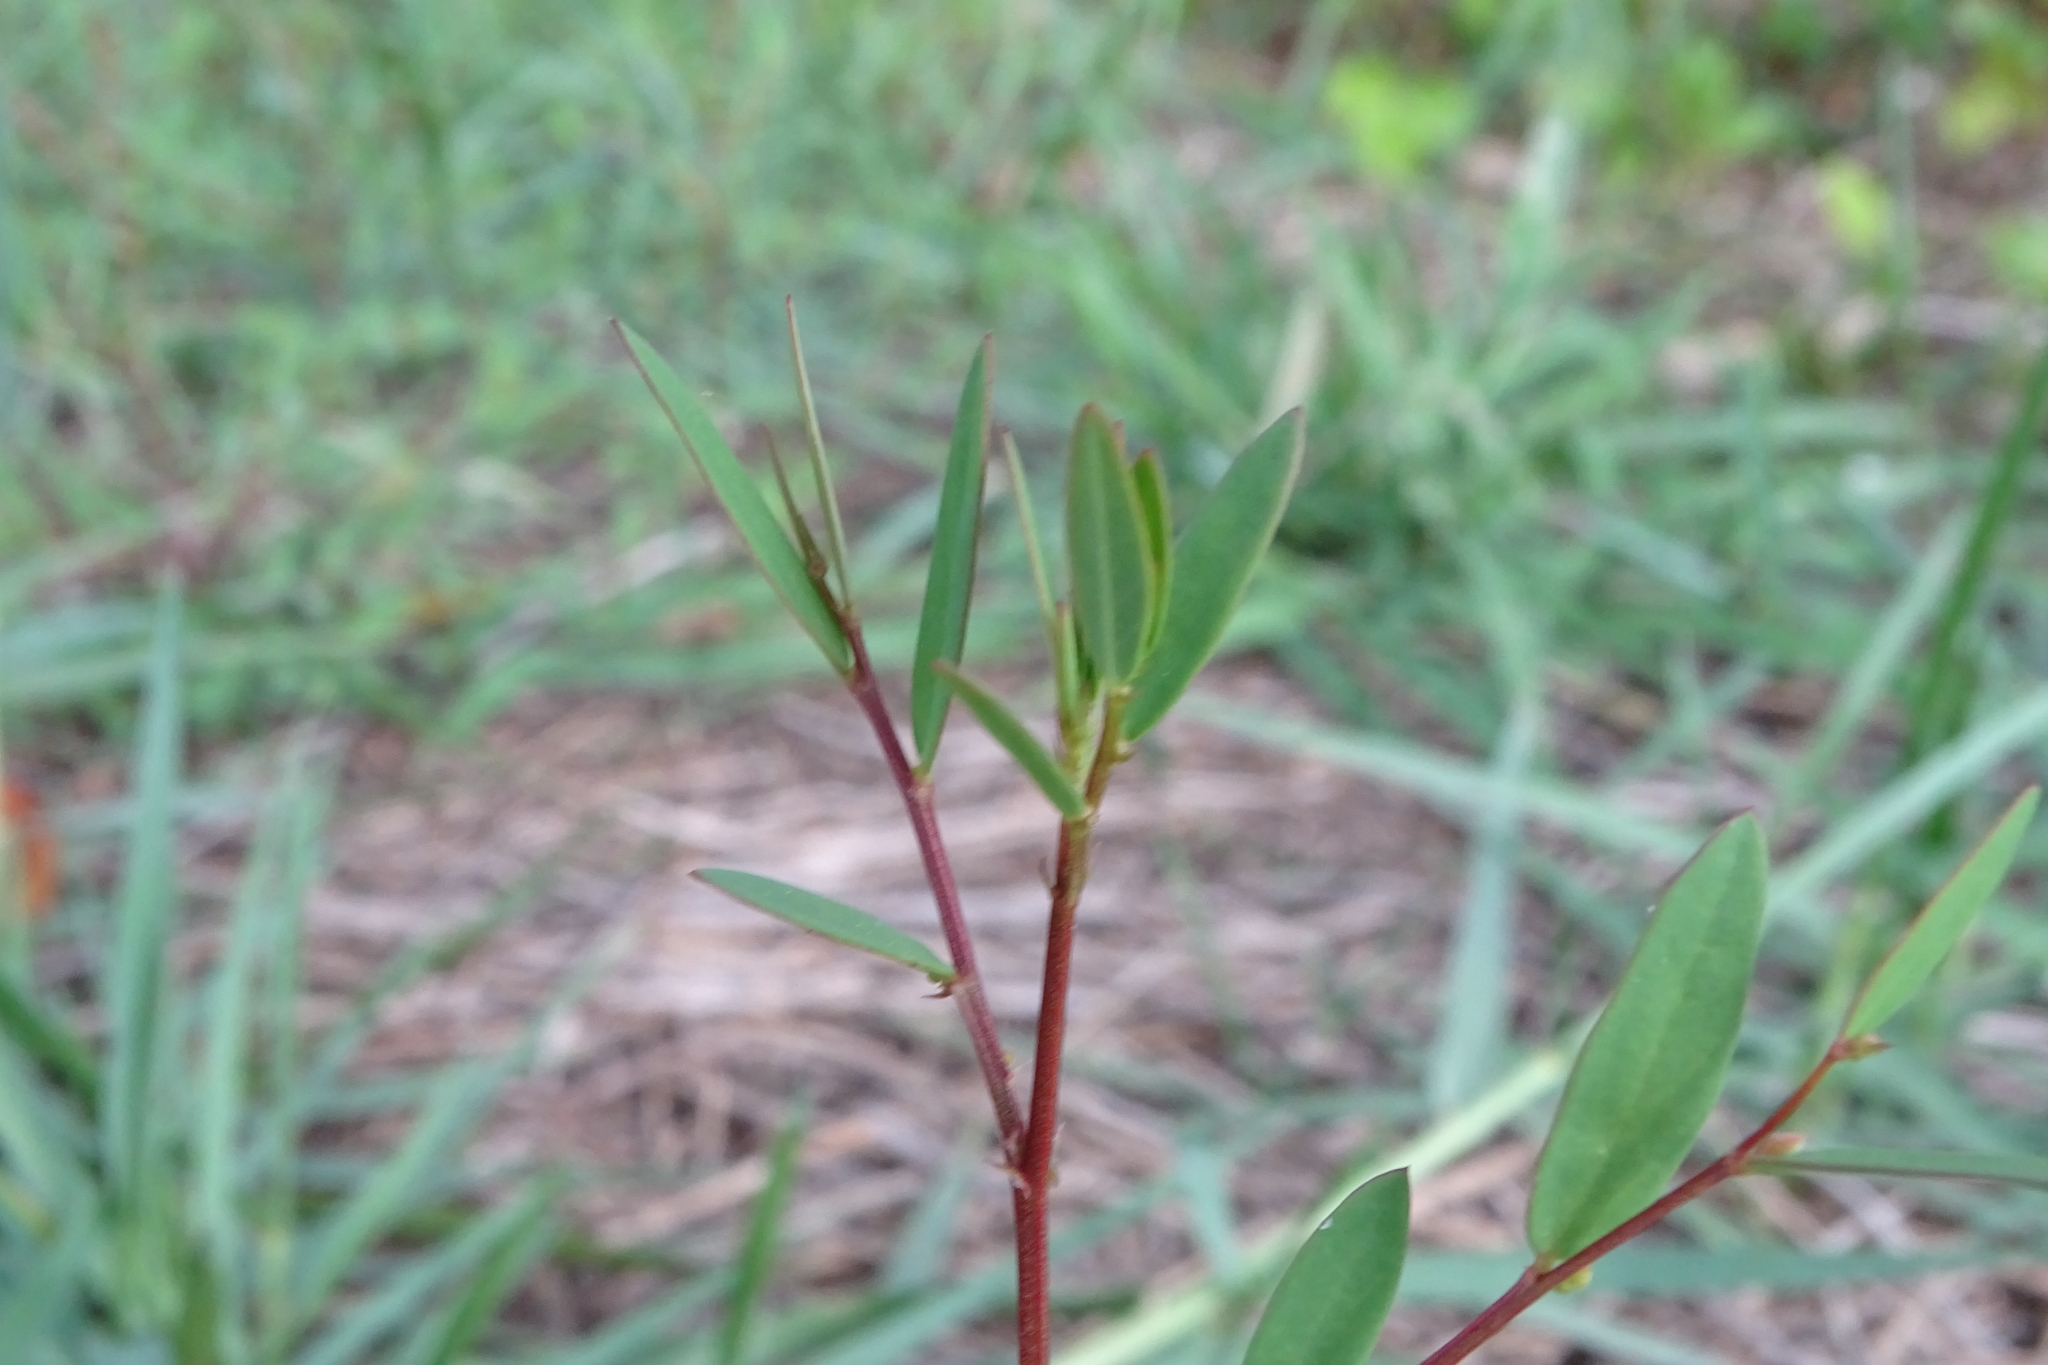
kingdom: Plantae
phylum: Tracheophyta
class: Magnoliopsida
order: Malpighiales
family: Phyllanthaceae
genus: Synostemon
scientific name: Synostemon bacciformis
